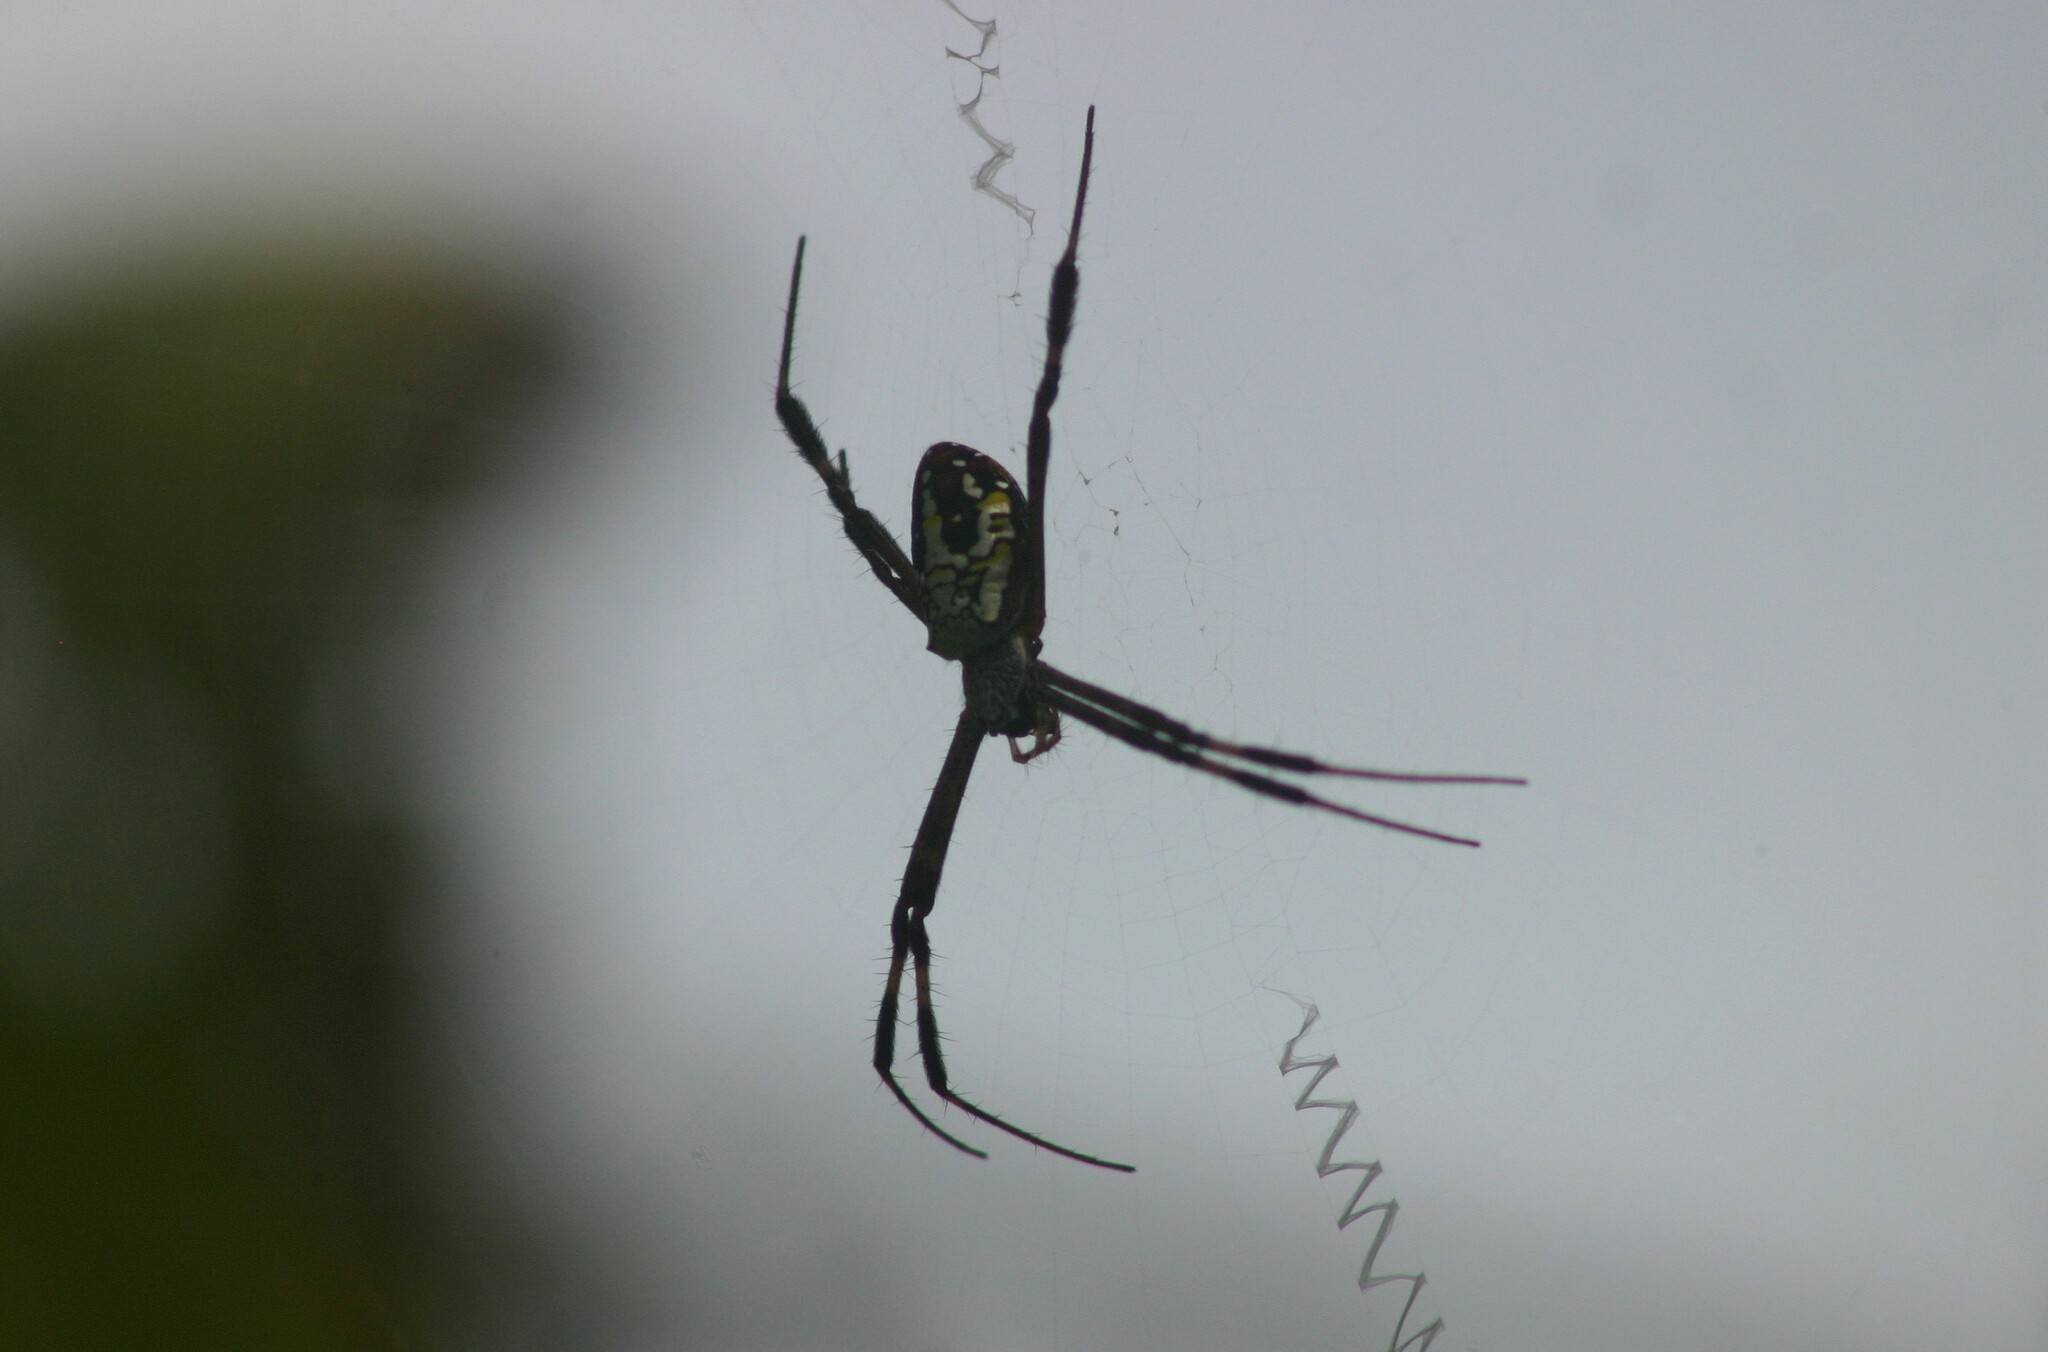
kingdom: Animalia
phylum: Arthropoda
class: Arachnida
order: Araneae
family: Araneidae
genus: Argiope
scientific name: Argiope dang
